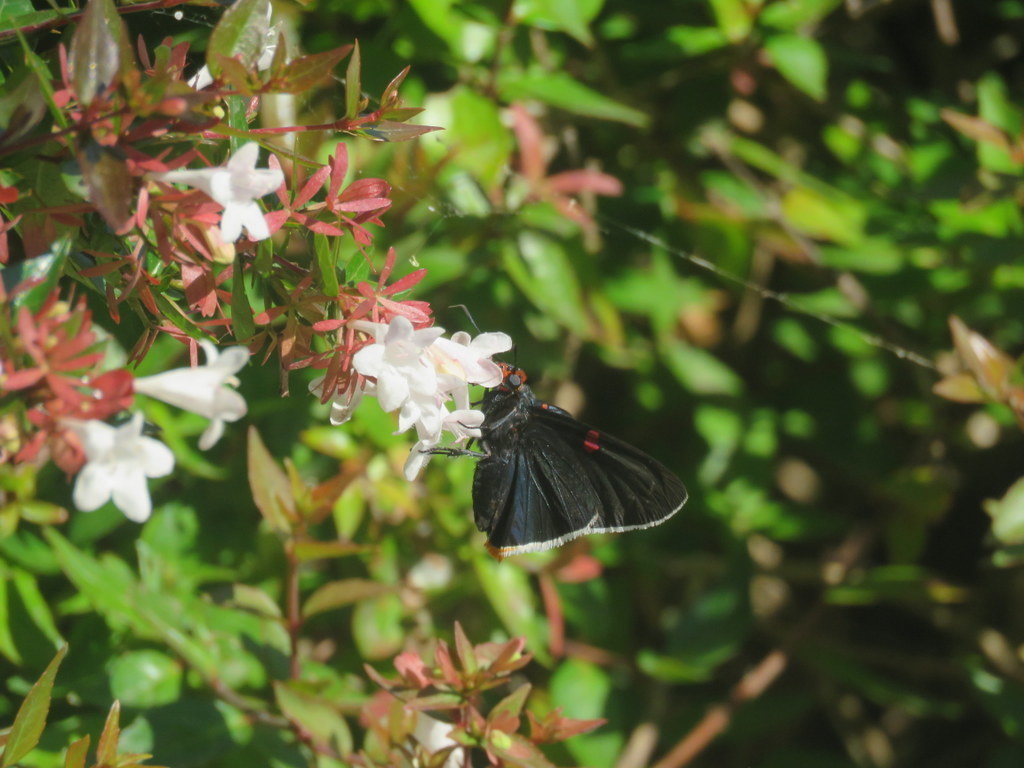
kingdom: Animalia
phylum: Arthropoda
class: Insecta
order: Lepidoptera
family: Hesperiidae
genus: Phocides
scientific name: Phocides polybius
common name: Guava skipper
